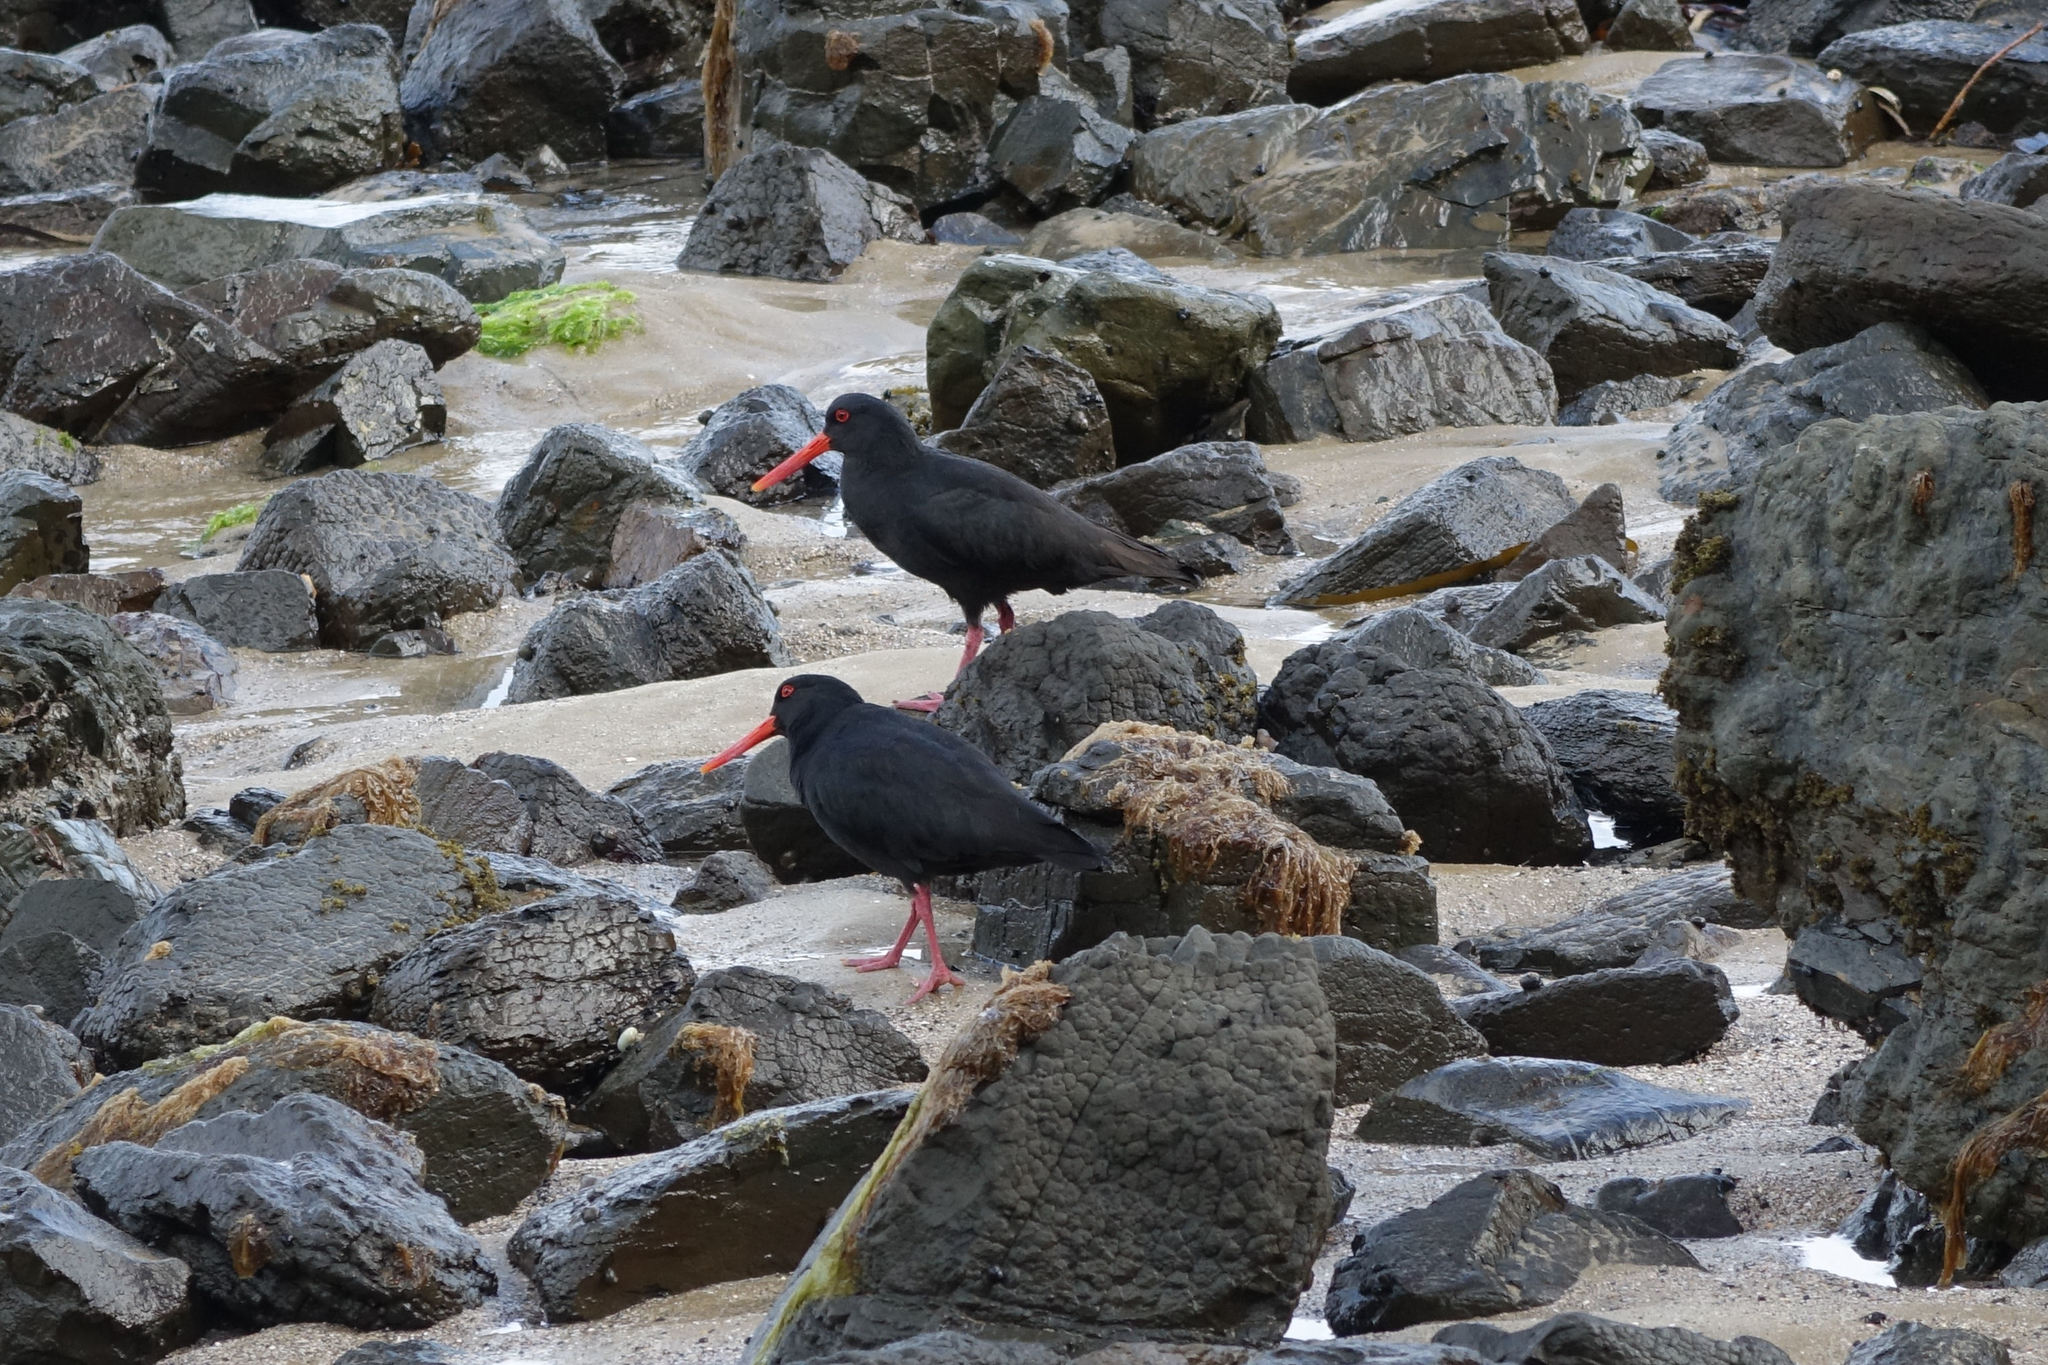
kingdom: Animalia
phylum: Chordata
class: Aves
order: Charadriiformes
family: Haematopodidae
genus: Haematopus
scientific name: Haematopus unicolor
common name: Variable oystercatcher
